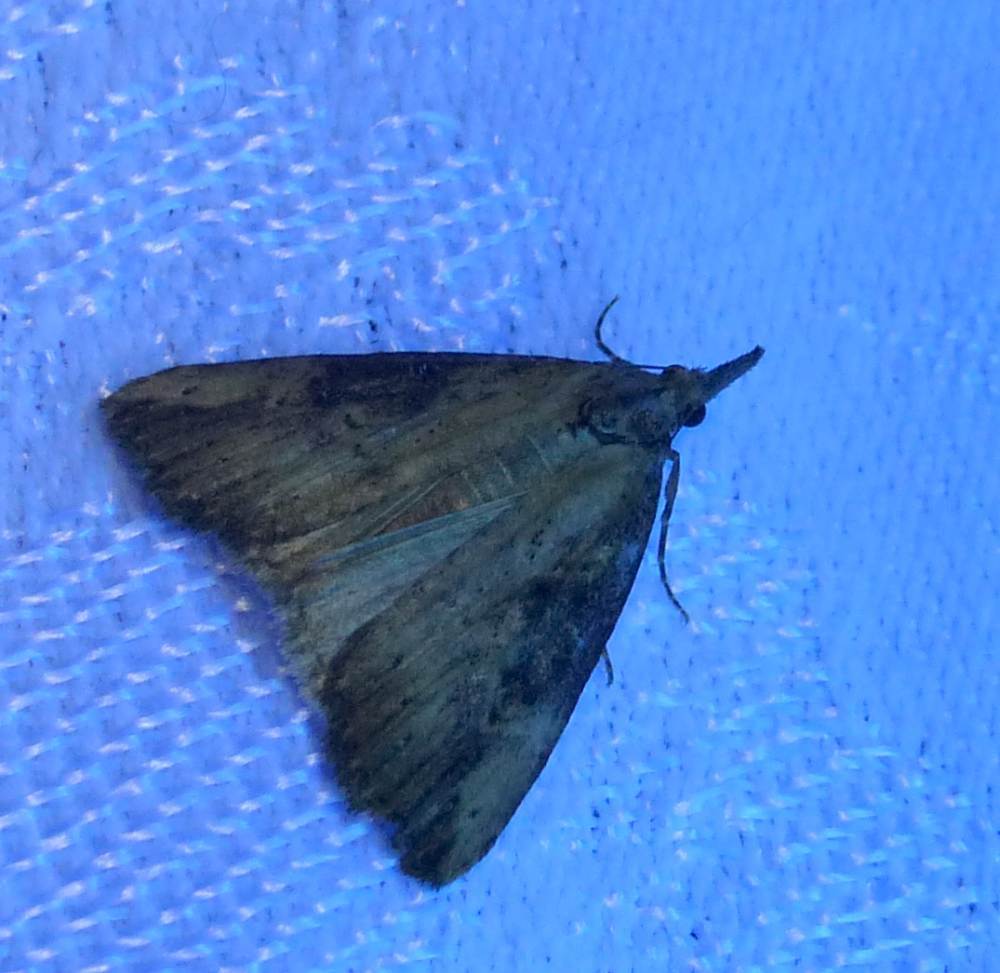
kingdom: Animalia
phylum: Arthropoda
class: Insecta
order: Lepidoptera
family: Erebidae
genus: Hypena
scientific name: Hypena humuli
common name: Hop vine snout
